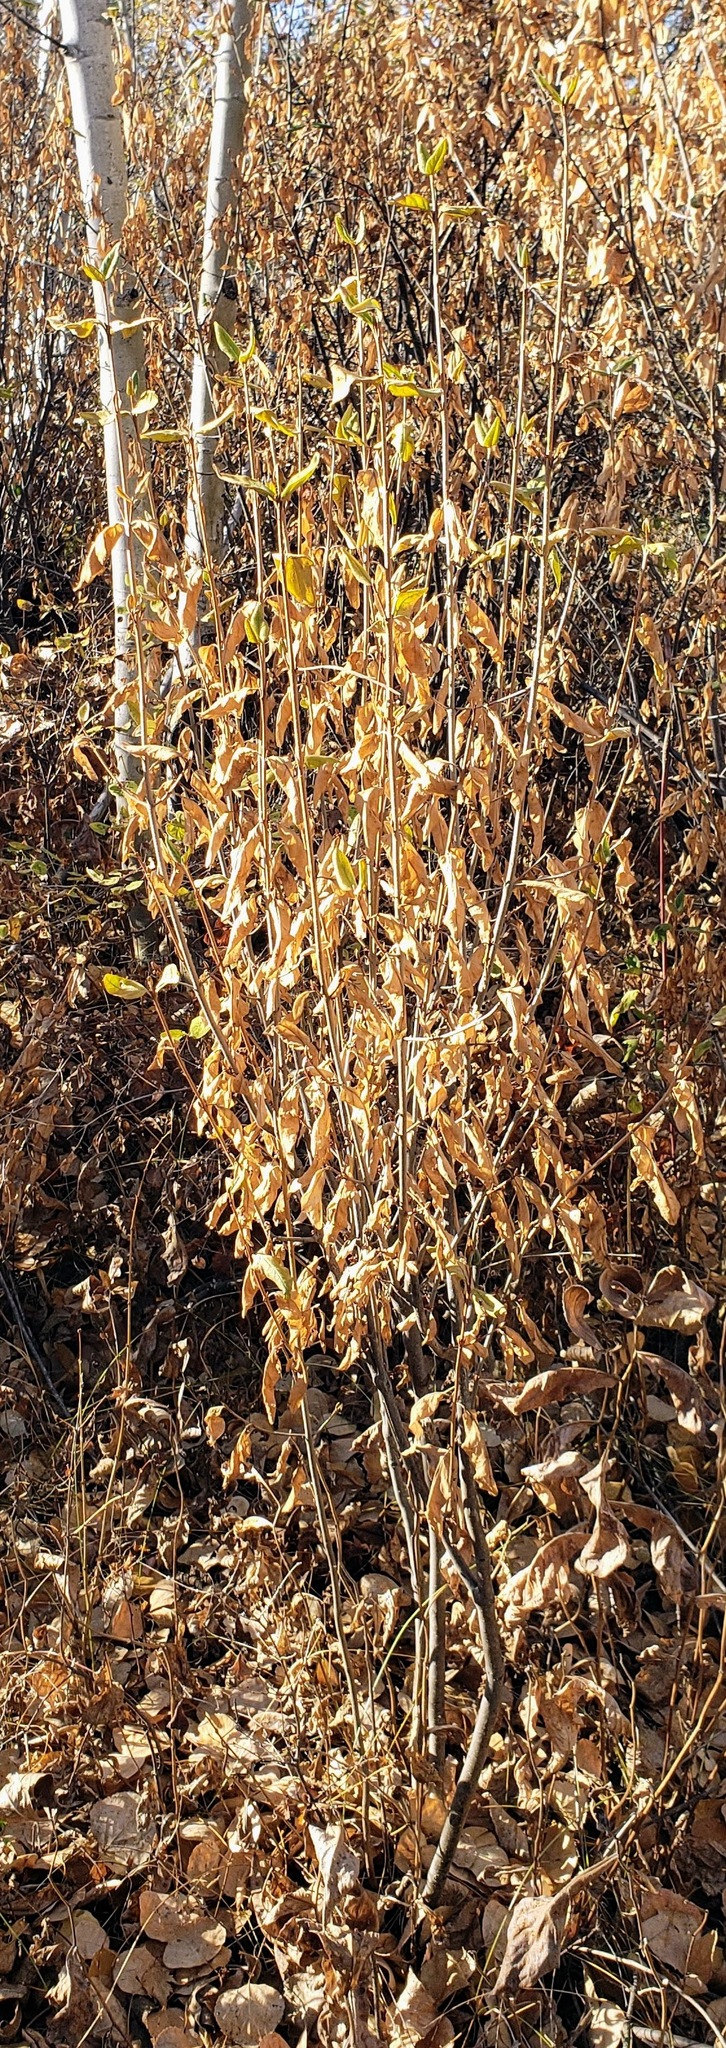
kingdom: Plantae
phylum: Tracheophyta
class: Magnoliopsida
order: Rosales
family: Elaeagnaceae
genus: Shepherdia
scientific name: Shepherdia canadensis
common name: Soapberry
